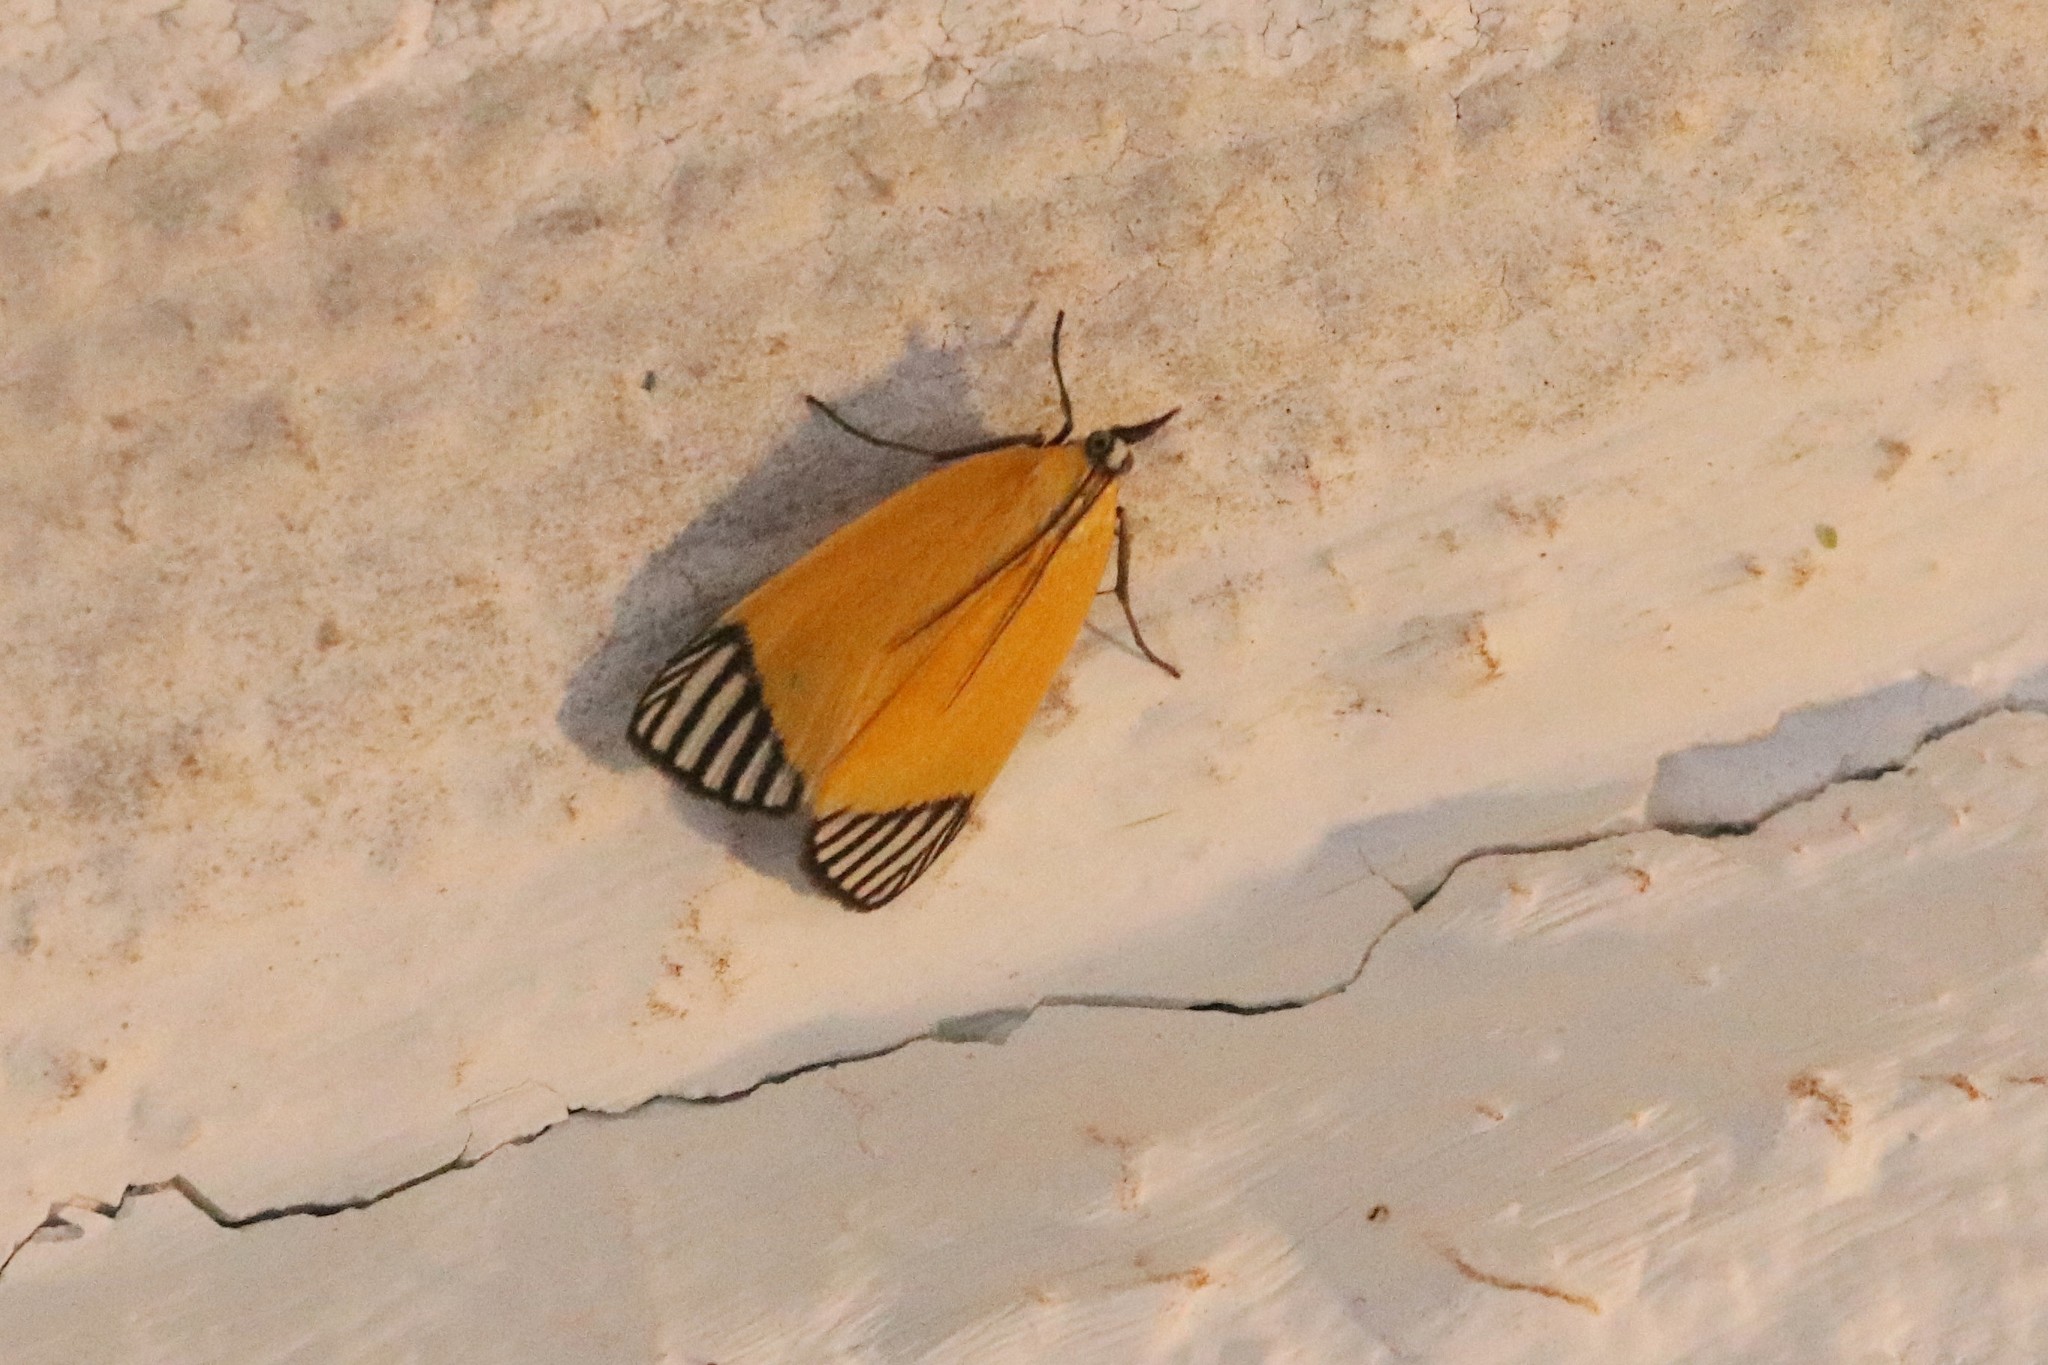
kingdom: Animalia
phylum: Arthropoda
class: Insecta
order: Lepidoptera
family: Pyralidae
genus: Mapeta
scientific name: Mapeta xanthomelas
